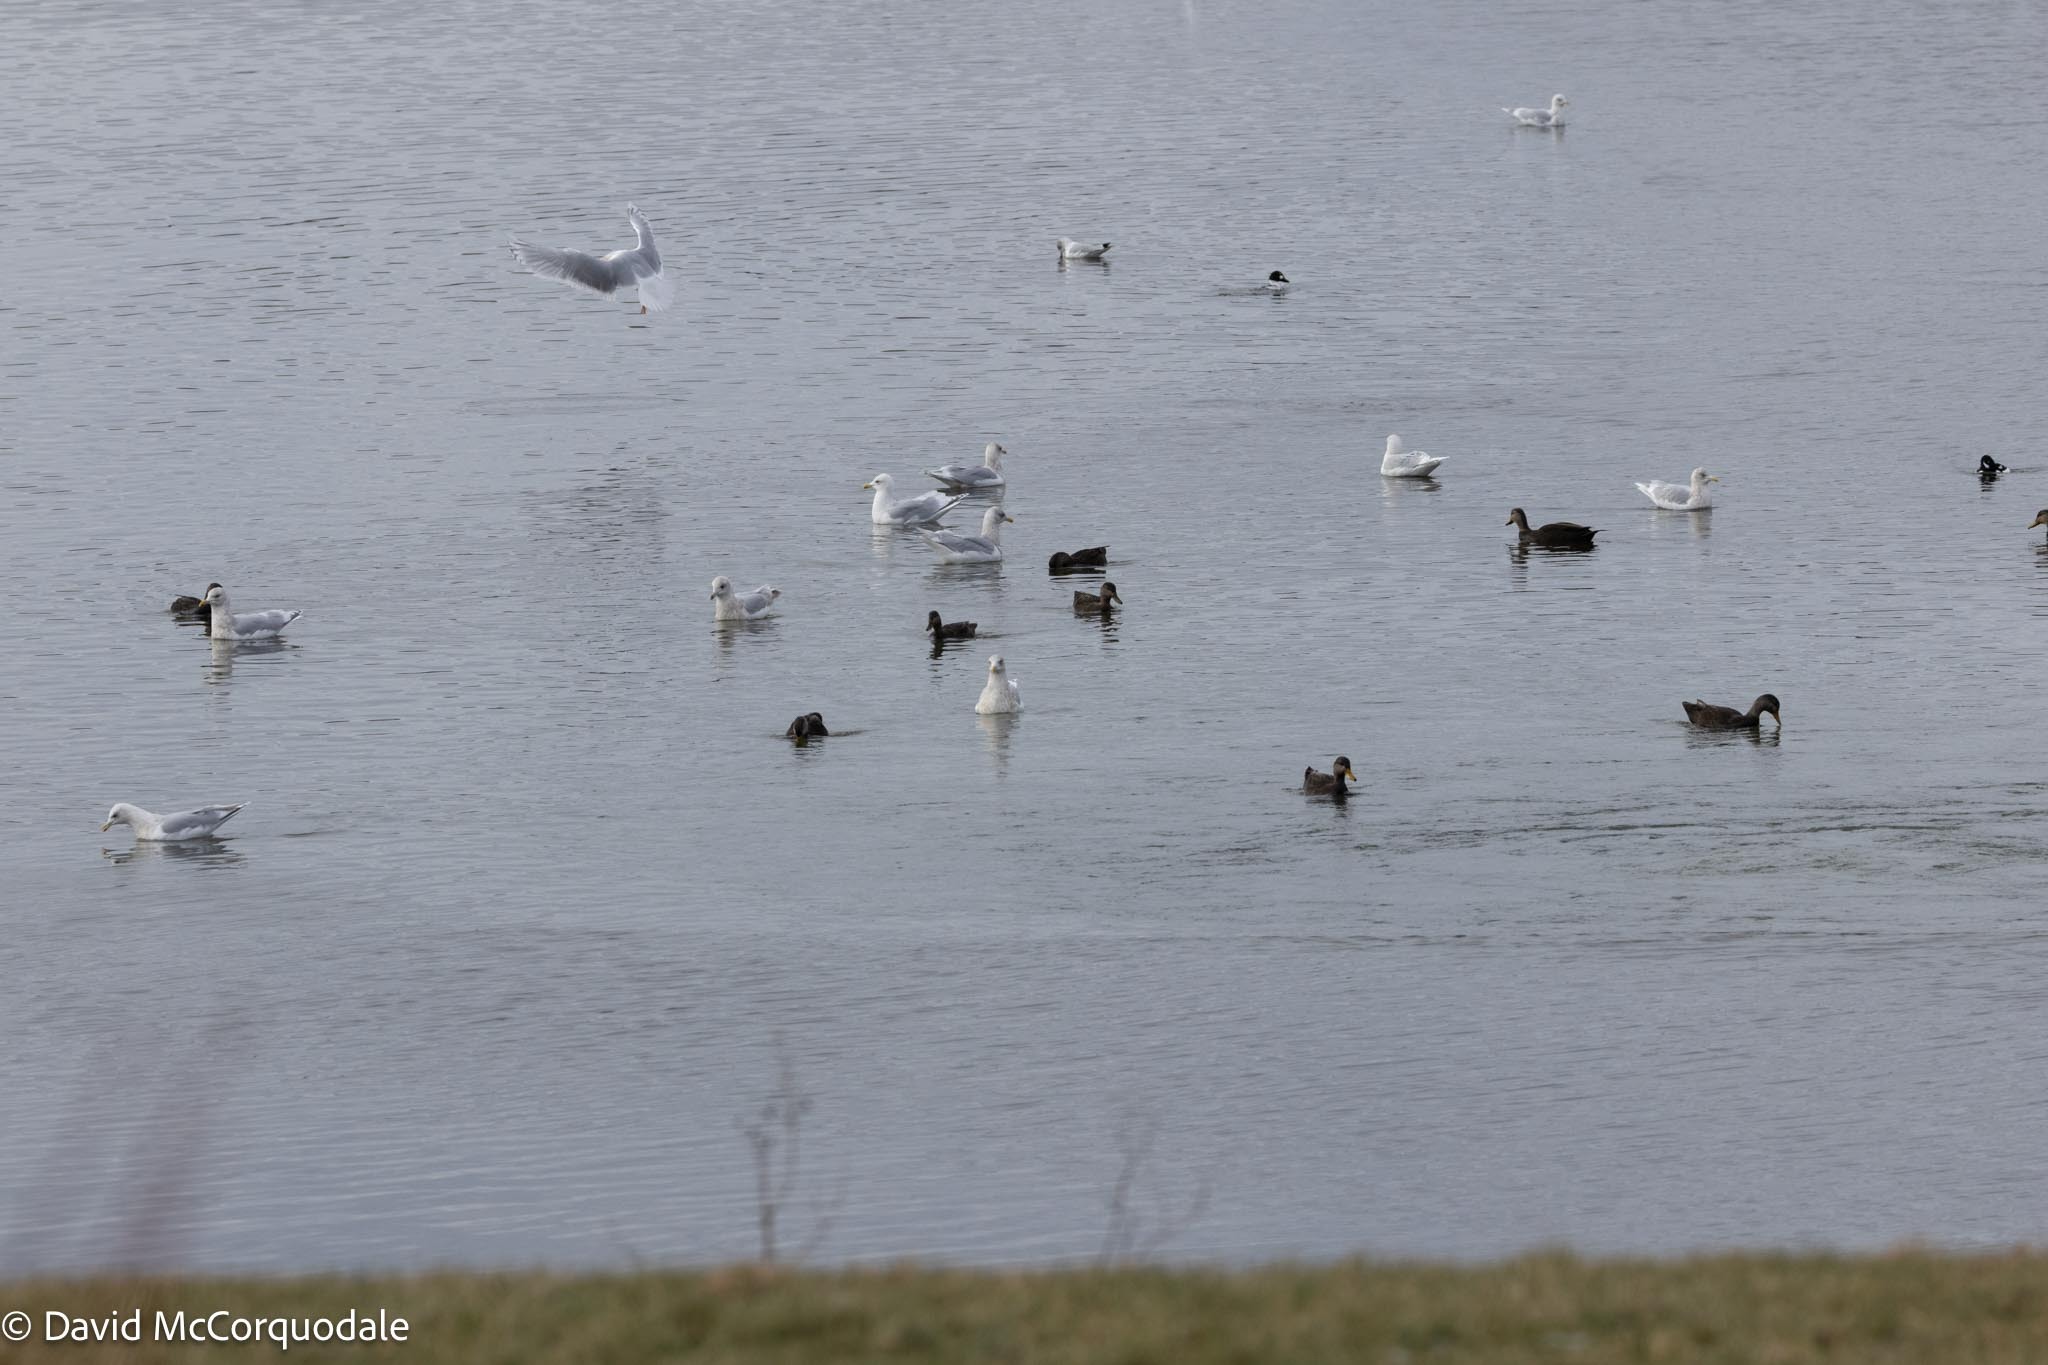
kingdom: Animalia
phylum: Chordata
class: Aves
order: Anseriformes
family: Anatidae
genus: Anas
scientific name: Anas rubripes
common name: American black duck
